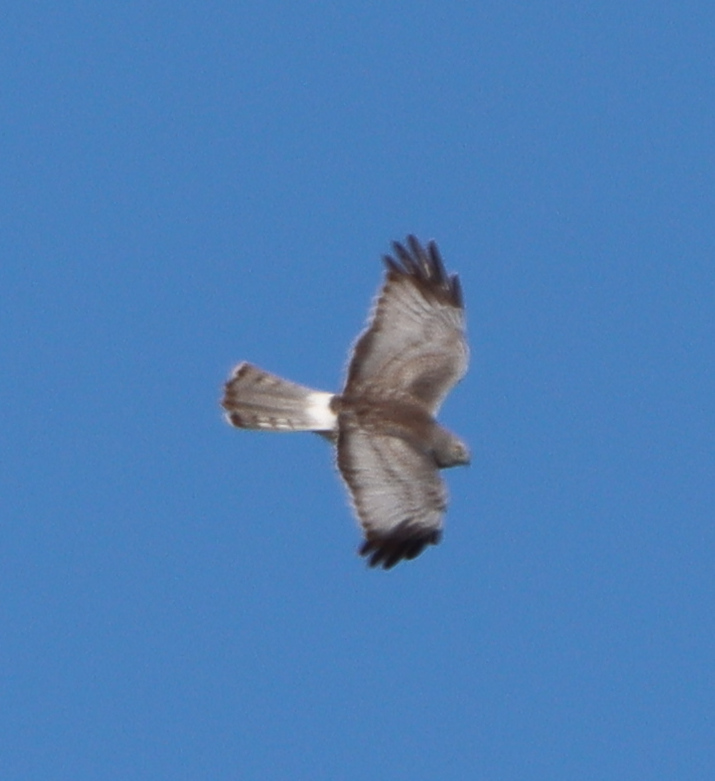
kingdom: Animalia
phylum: Chordata
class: Aves
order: Accipitriformes
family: Accipitridae
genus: Circus
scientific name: Circus cyaneus
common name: Hen harrier
